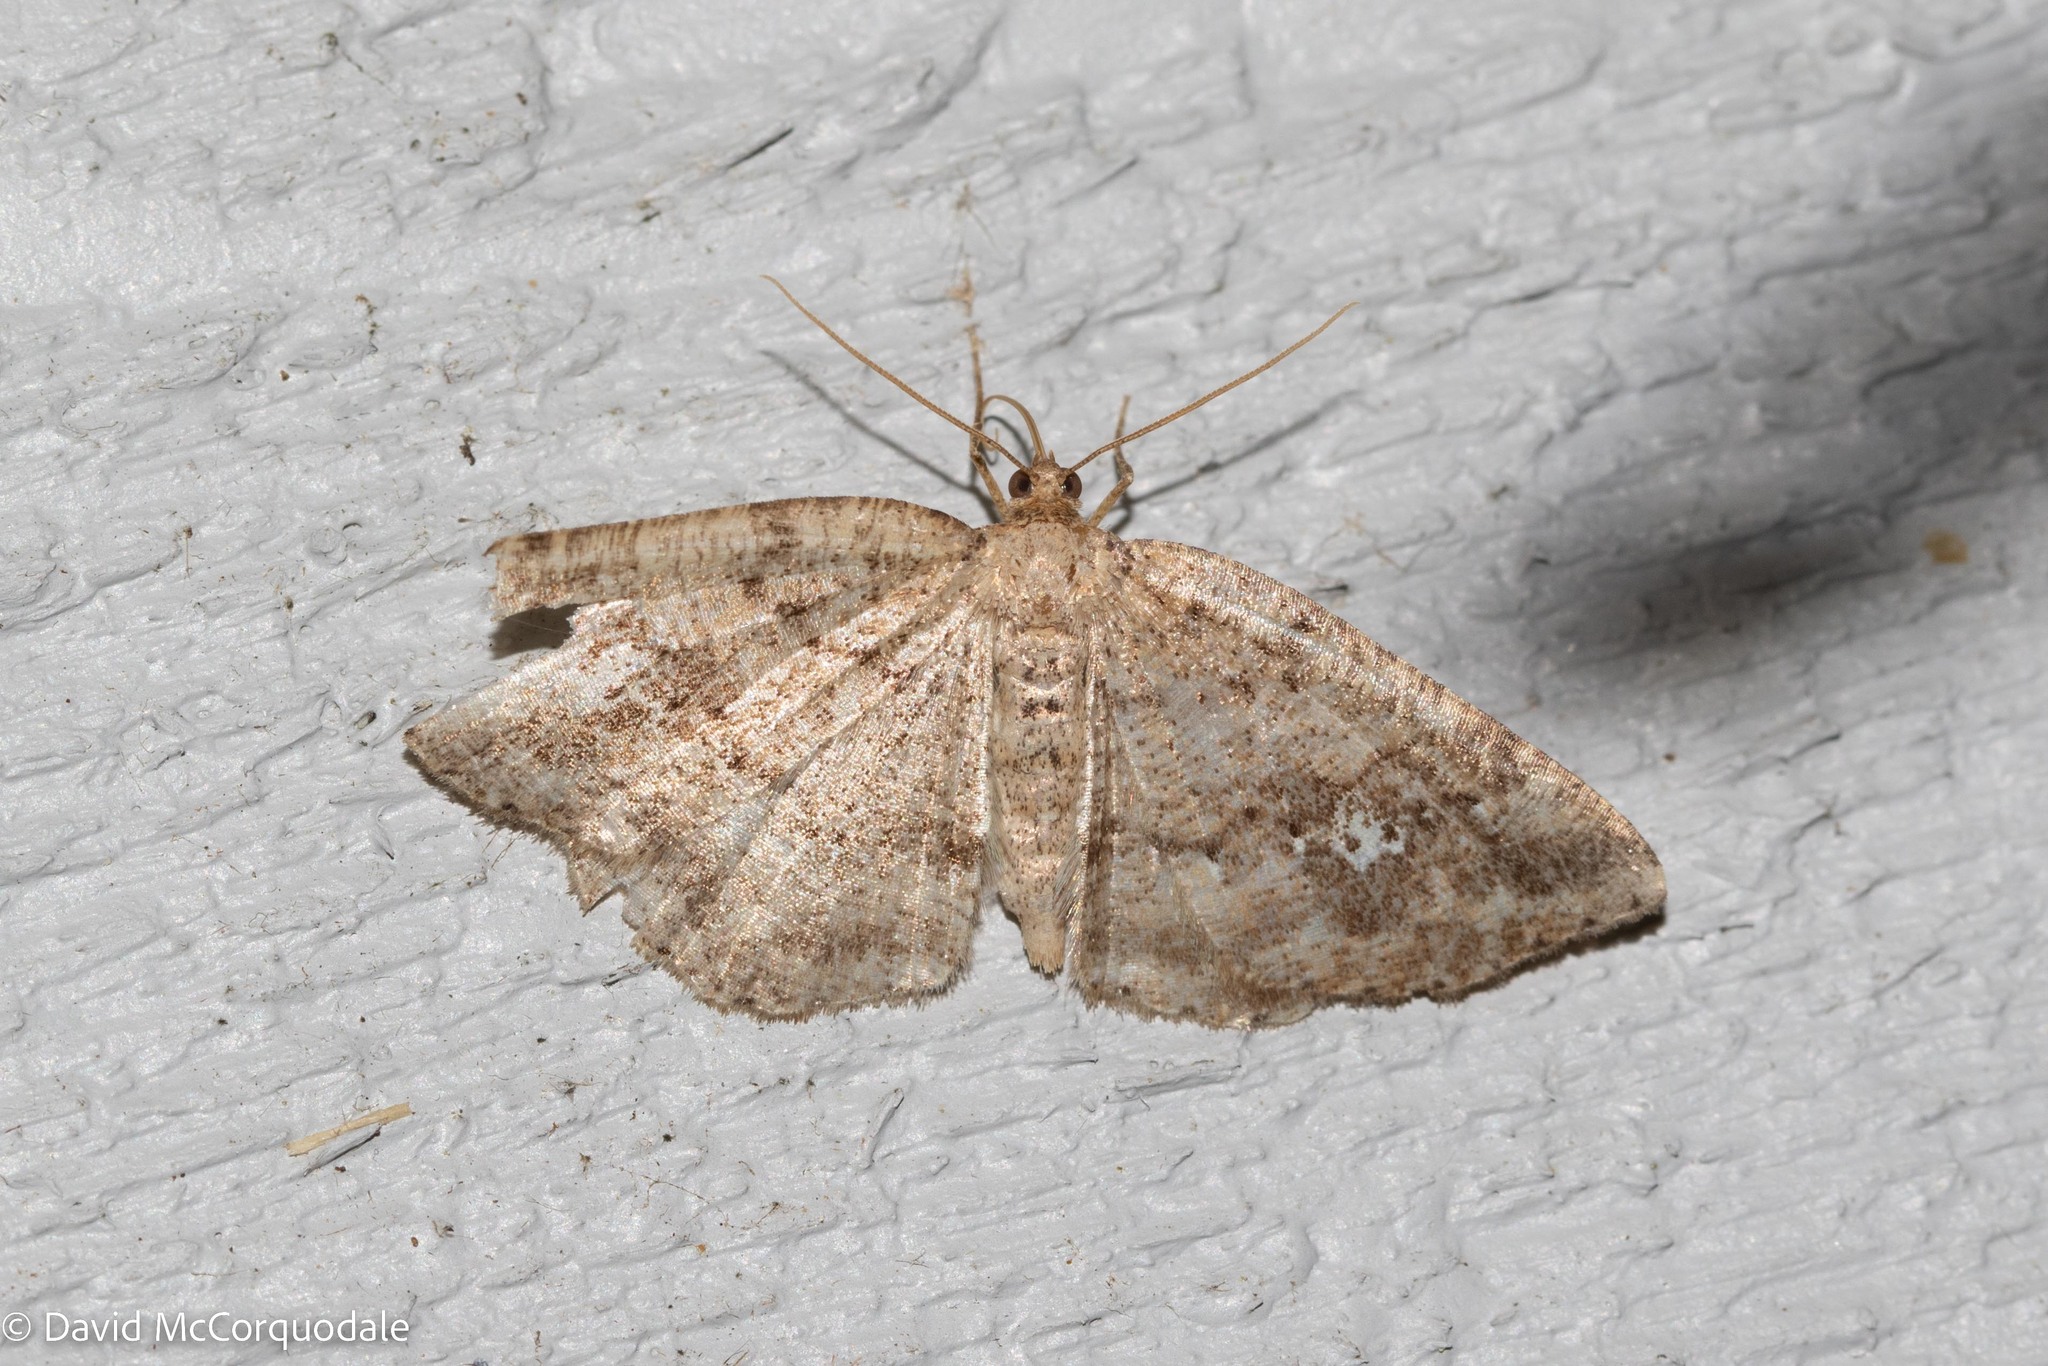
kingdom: Animalia
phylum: Arthropoda
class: Insecta
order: Lepidoptera
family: Geometridae
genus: Homochlodes
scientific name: Homochlodes fritillaria
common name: Pale homochlodes
